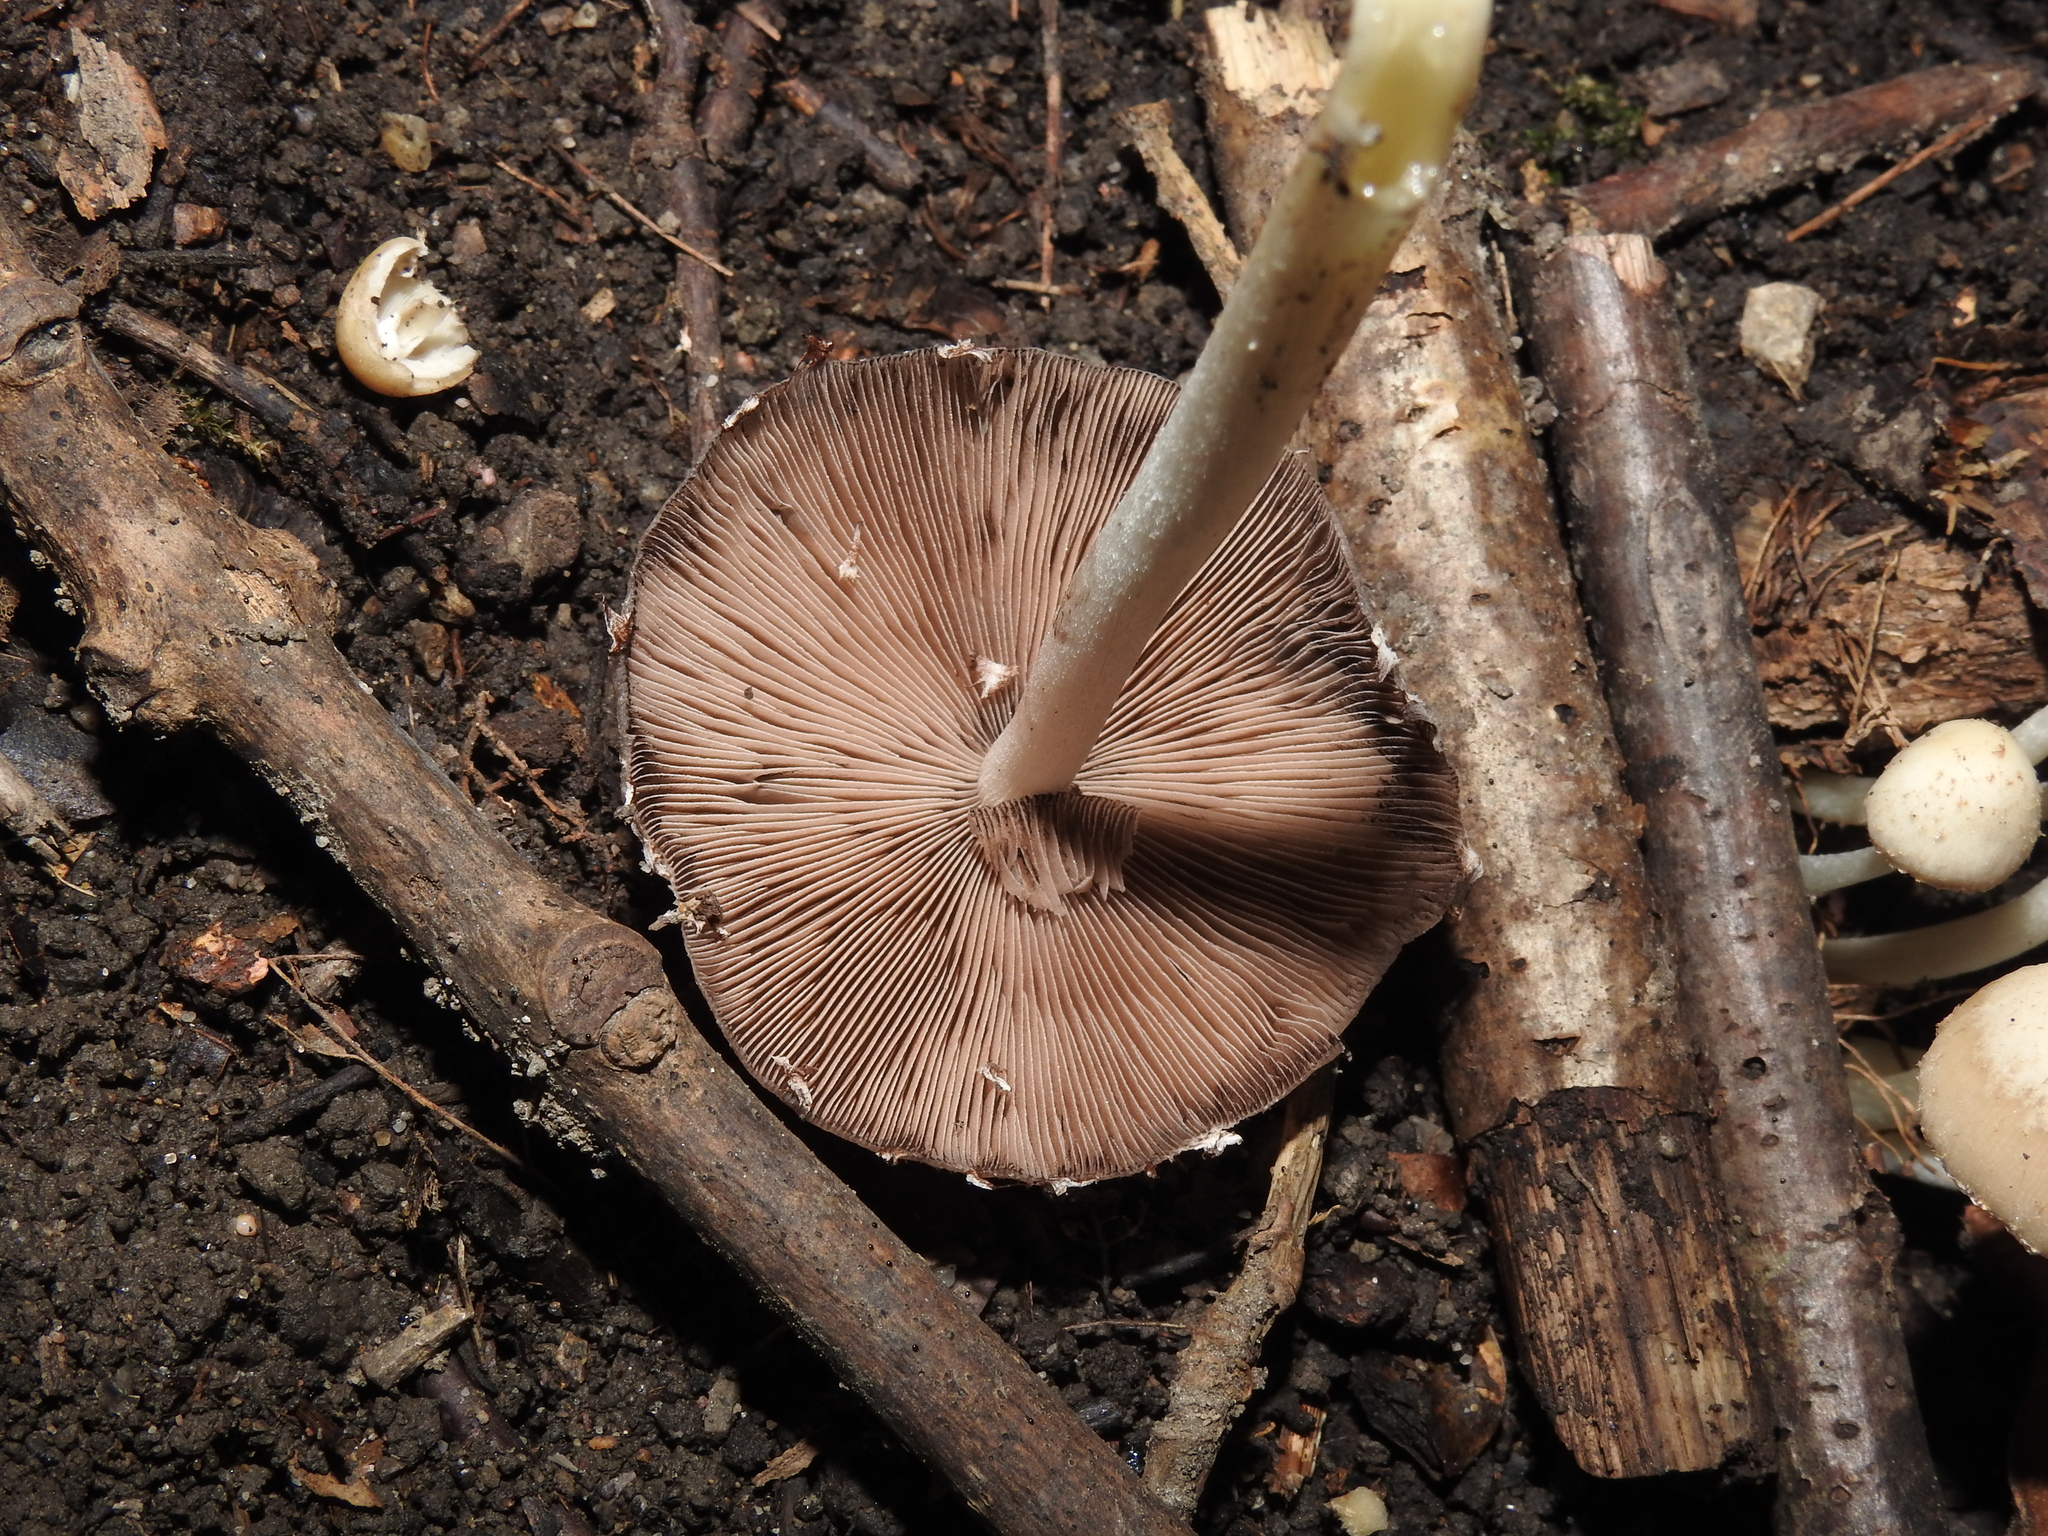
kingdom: Fungi
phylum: Basidiomycota
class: Agaricomycetes
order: Agaricales
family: Psathyrellaceae
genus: Candolleomyces
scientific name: Candolleomyces candolleanus
